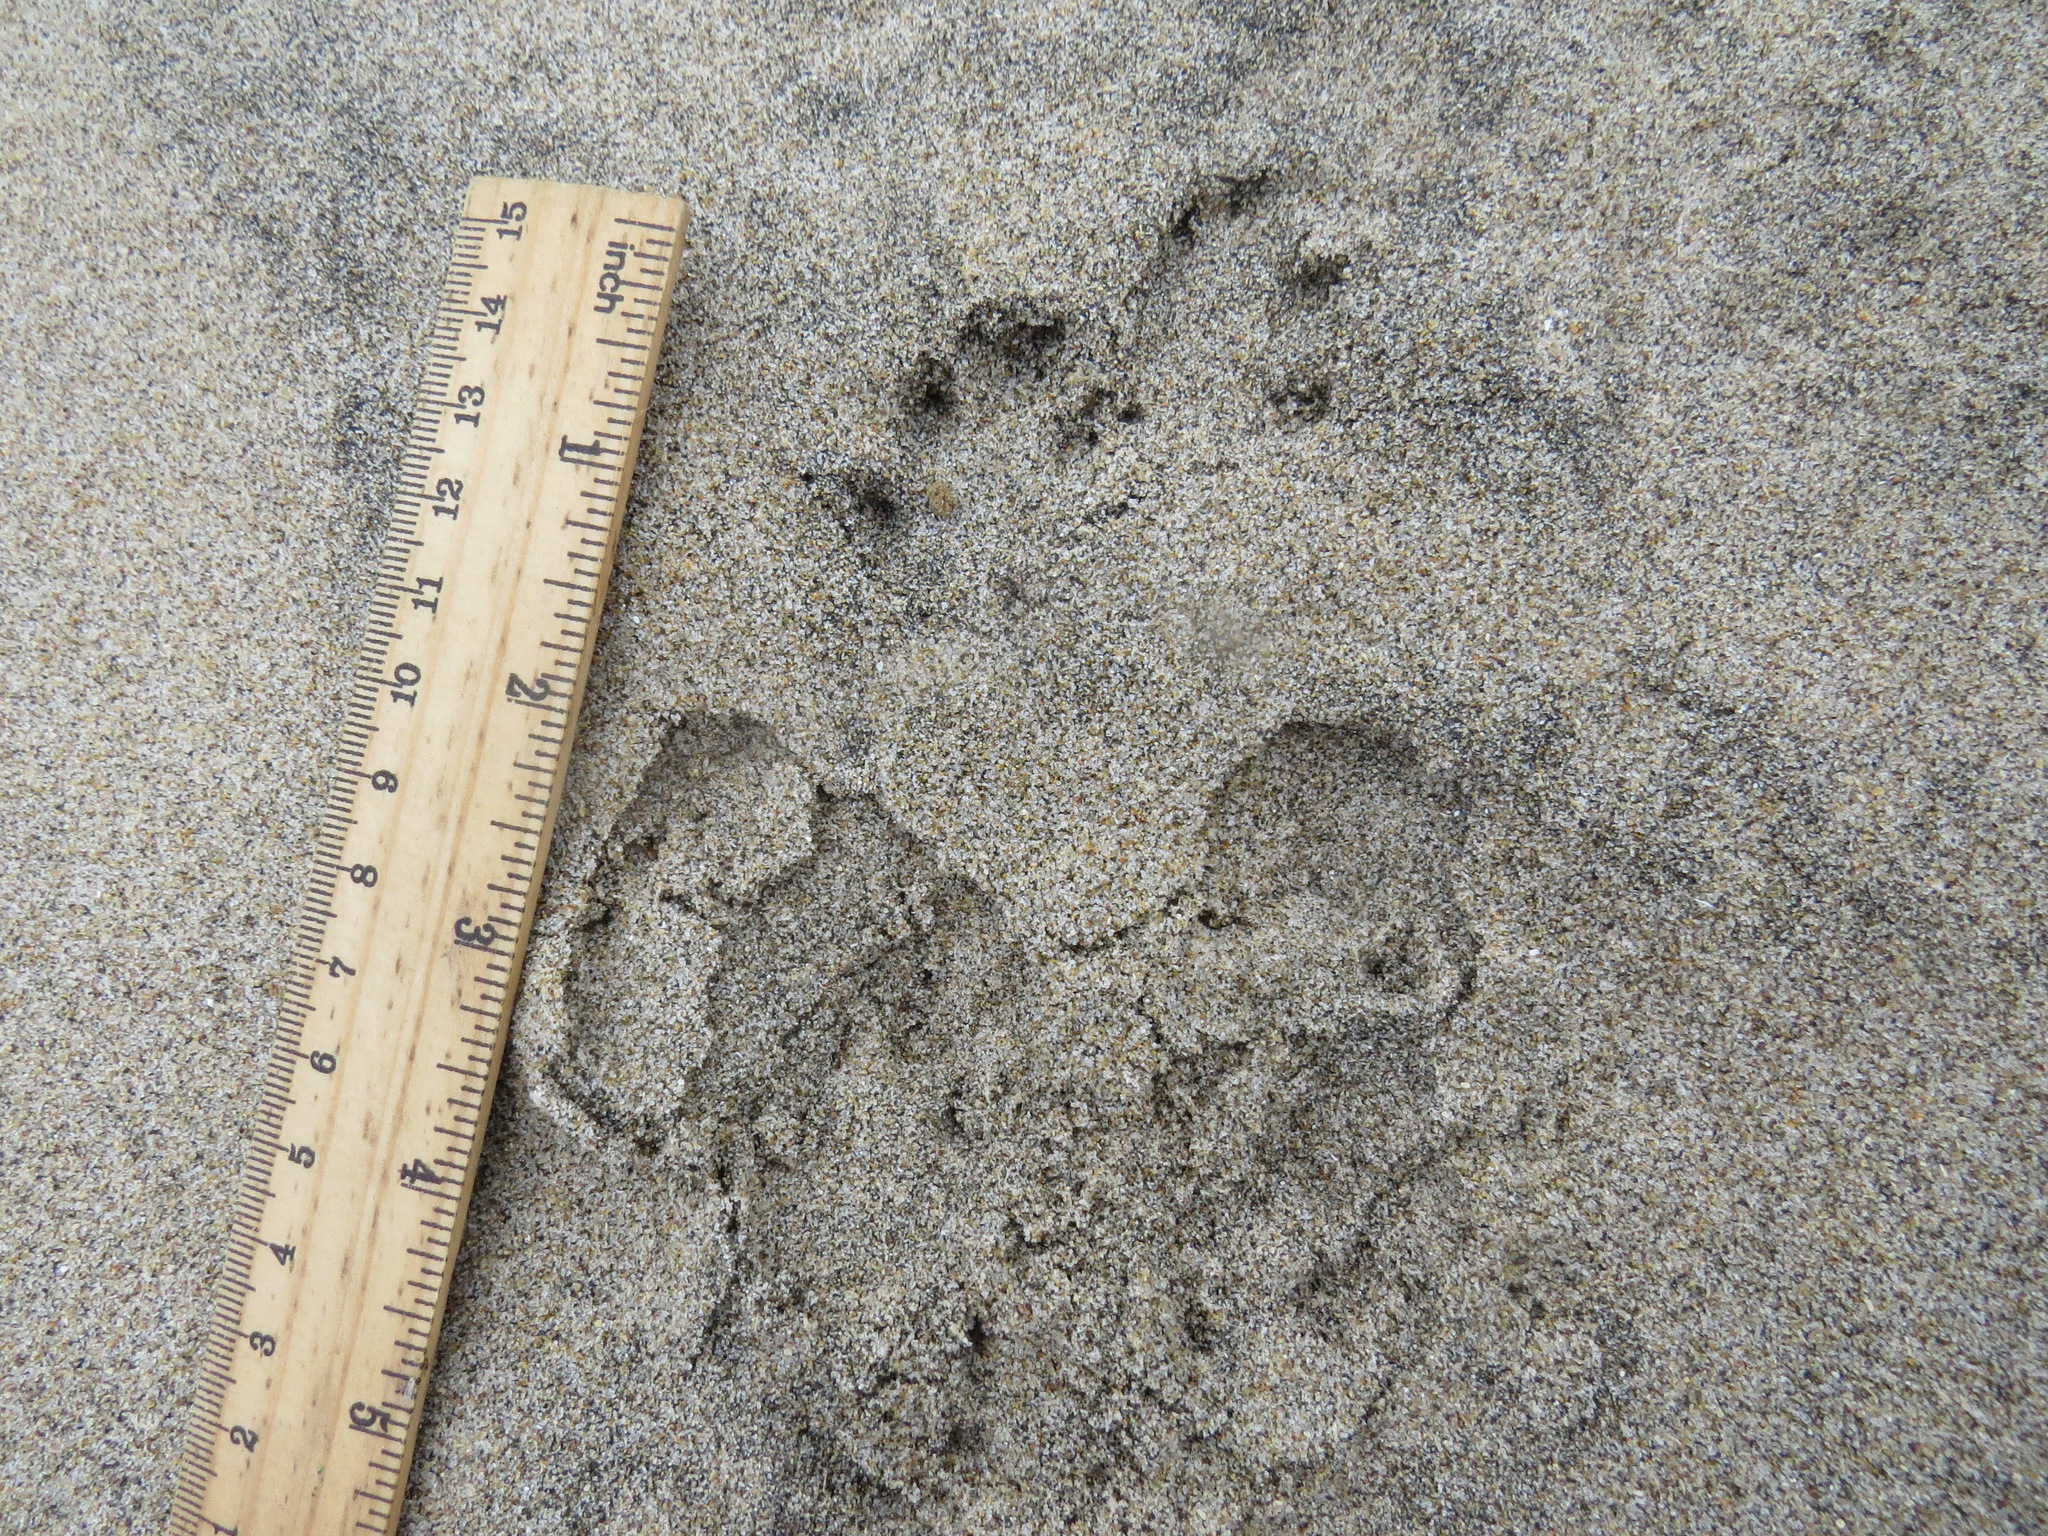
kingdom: Animalia
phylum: Chordata
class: Mammalia
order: Lagomorpha
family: Leporidae
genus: Sylvilagus
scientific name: Sylvilagus bachmani
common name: Brush rabbit
